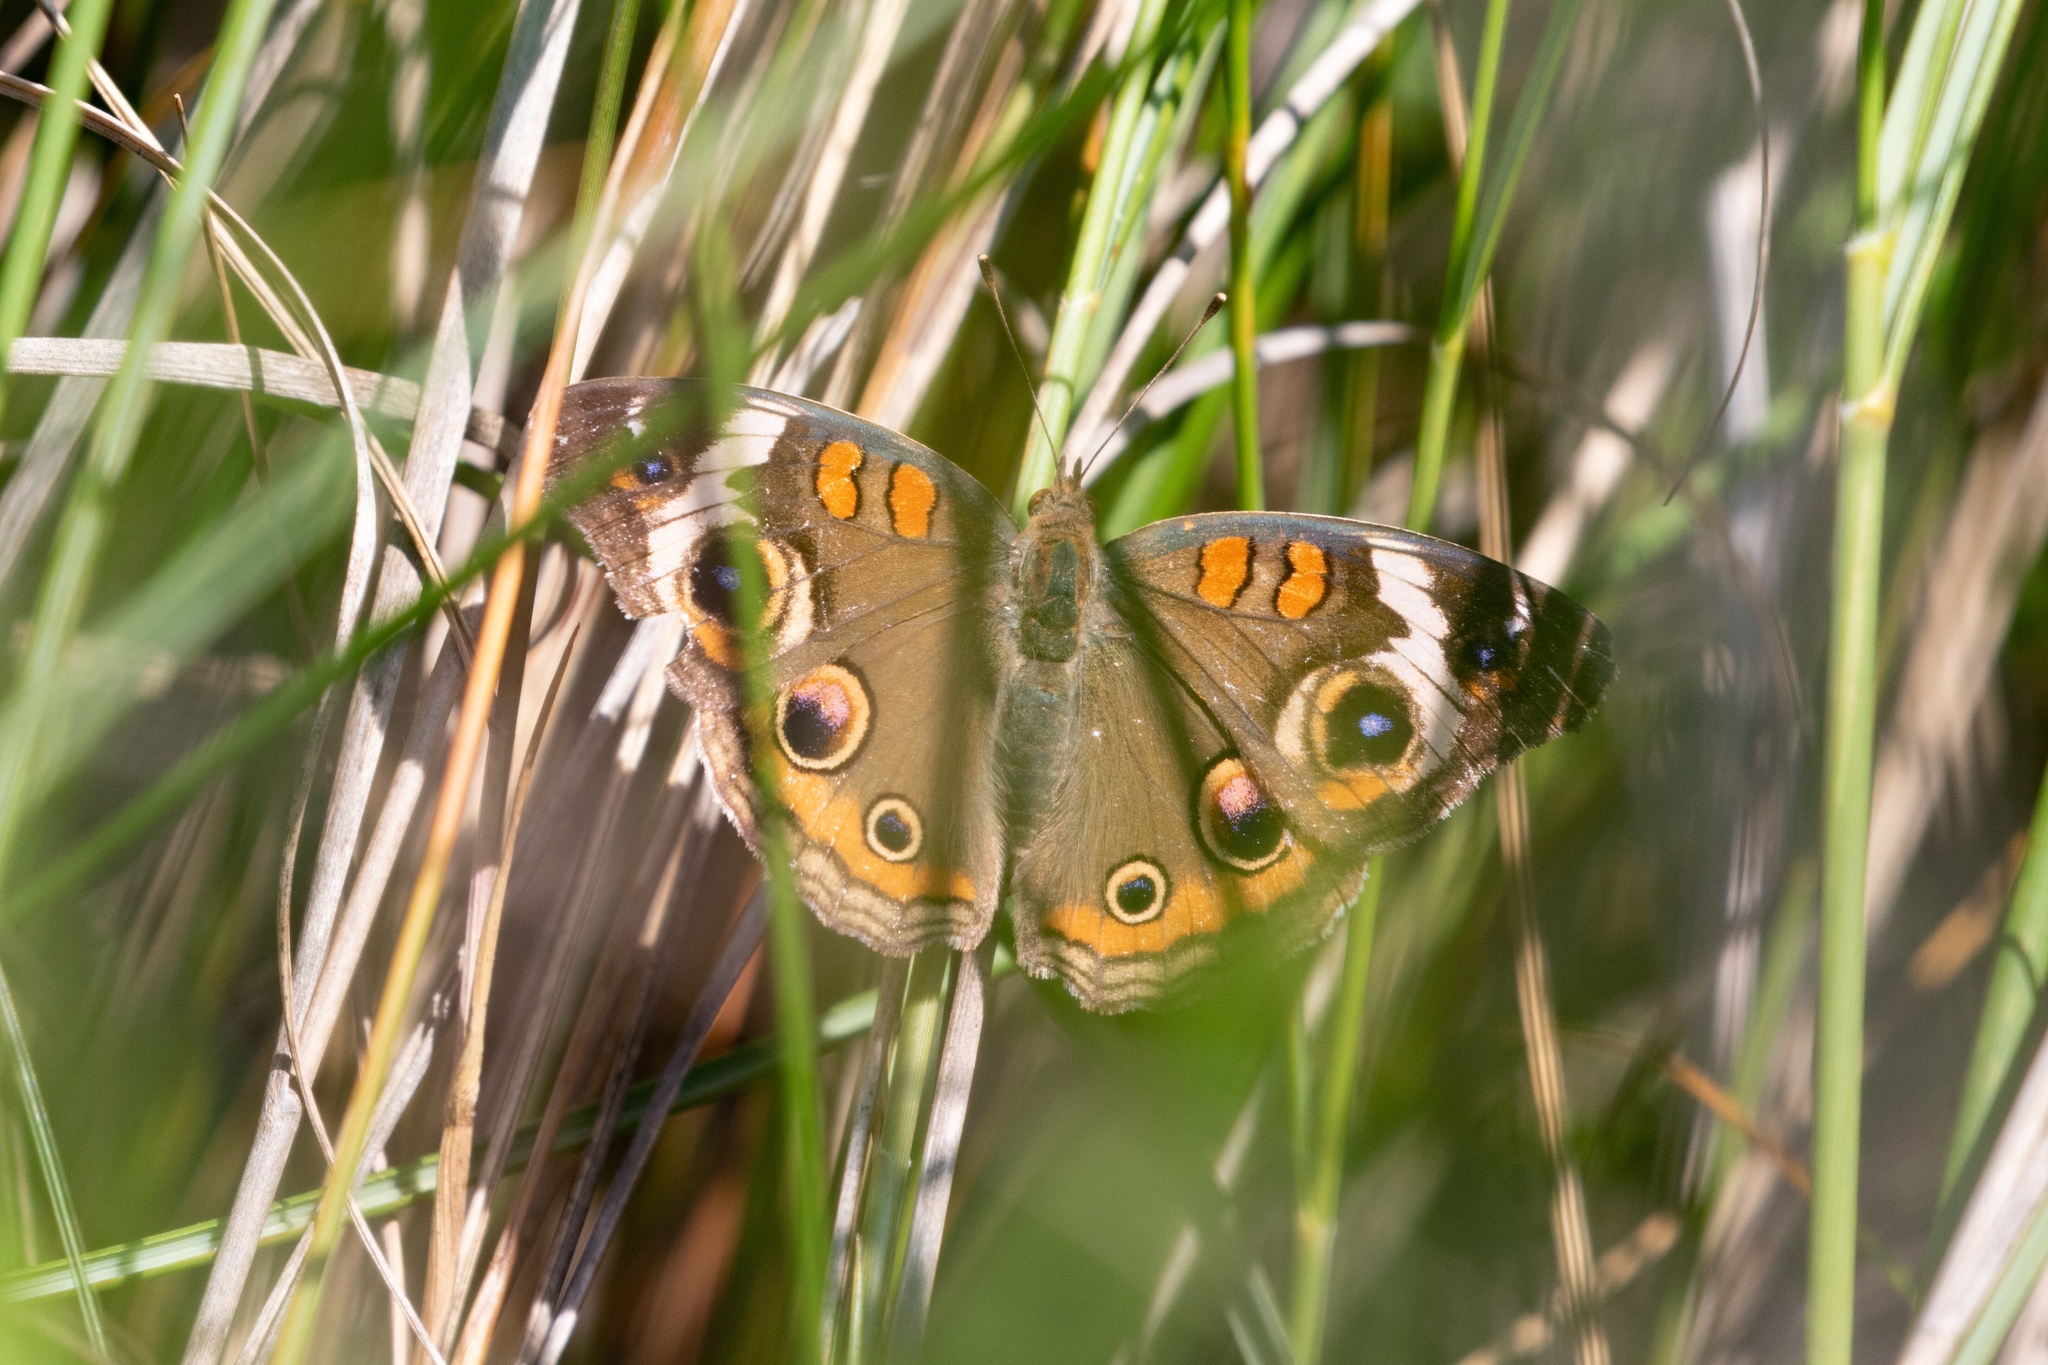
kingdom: Animalia
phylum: Arthropoda
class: Insecta
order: Lepidoptera
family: Nymphalidae
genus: Junonia
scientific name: Junonia coenia
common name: Common buckeye
